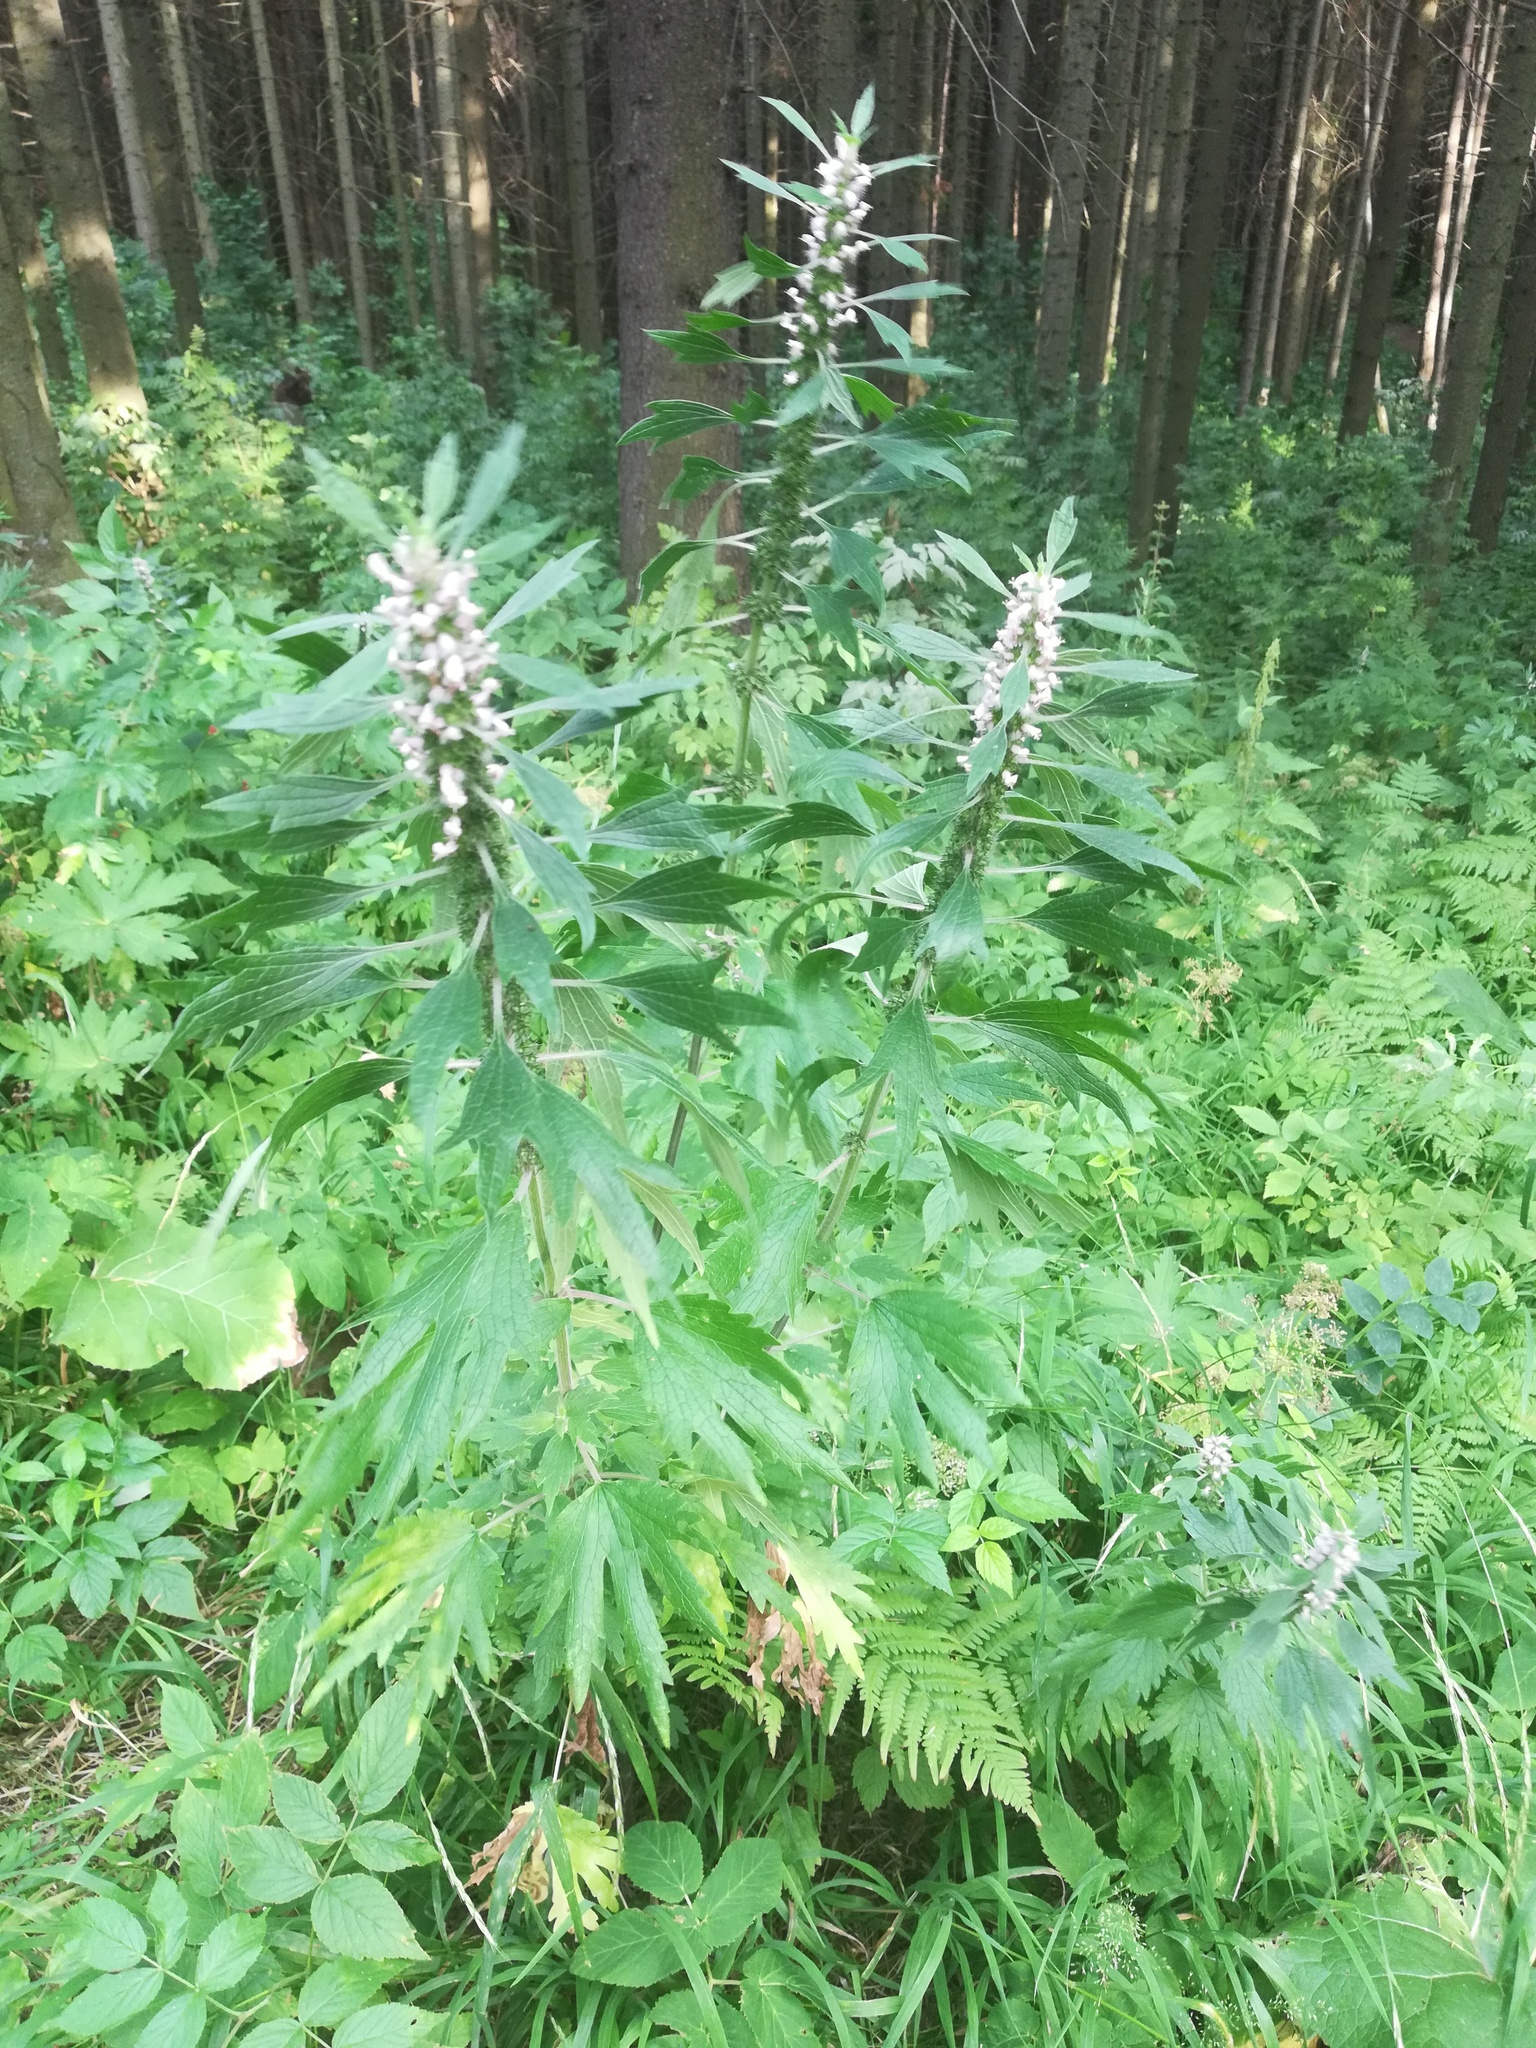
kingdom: Plantae
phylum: Tracheophyta
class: Magnoliopsida
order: Lamiales
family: Lamiaceae
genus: Leonurus
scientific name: Leonurus quinquelobatus
